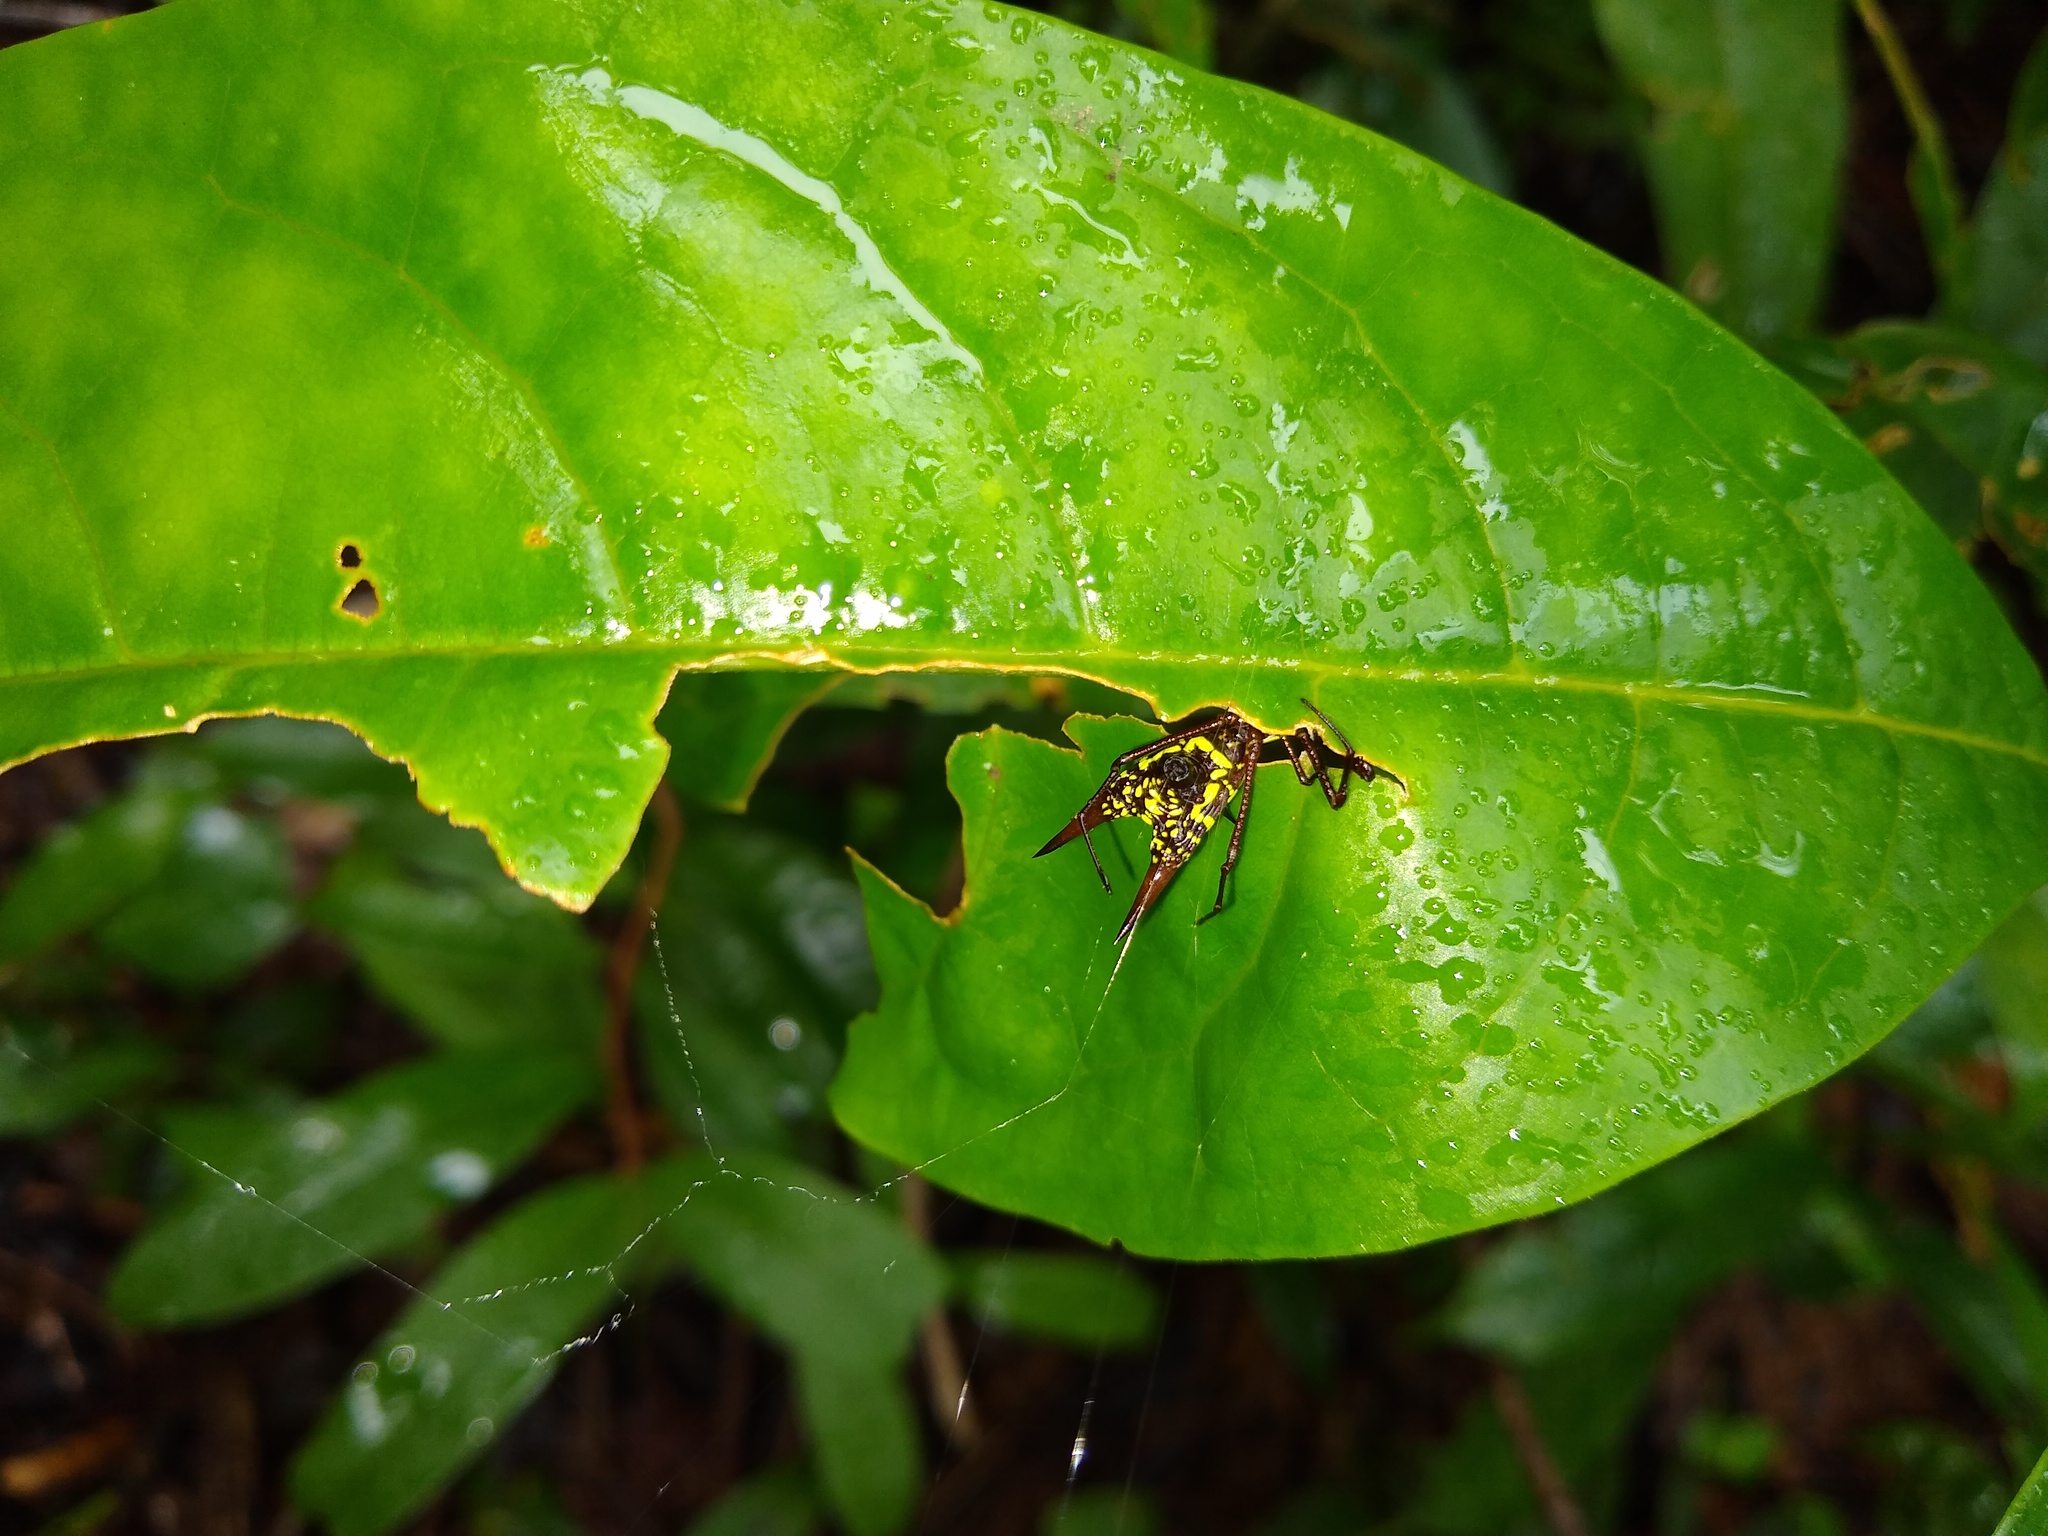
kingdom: Animalia
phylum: Arthropoda
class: Arachnida
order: Araneae
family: Araneidae
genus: Micrathena
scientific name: Micrathena sexspinosa
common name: Orb weavers
